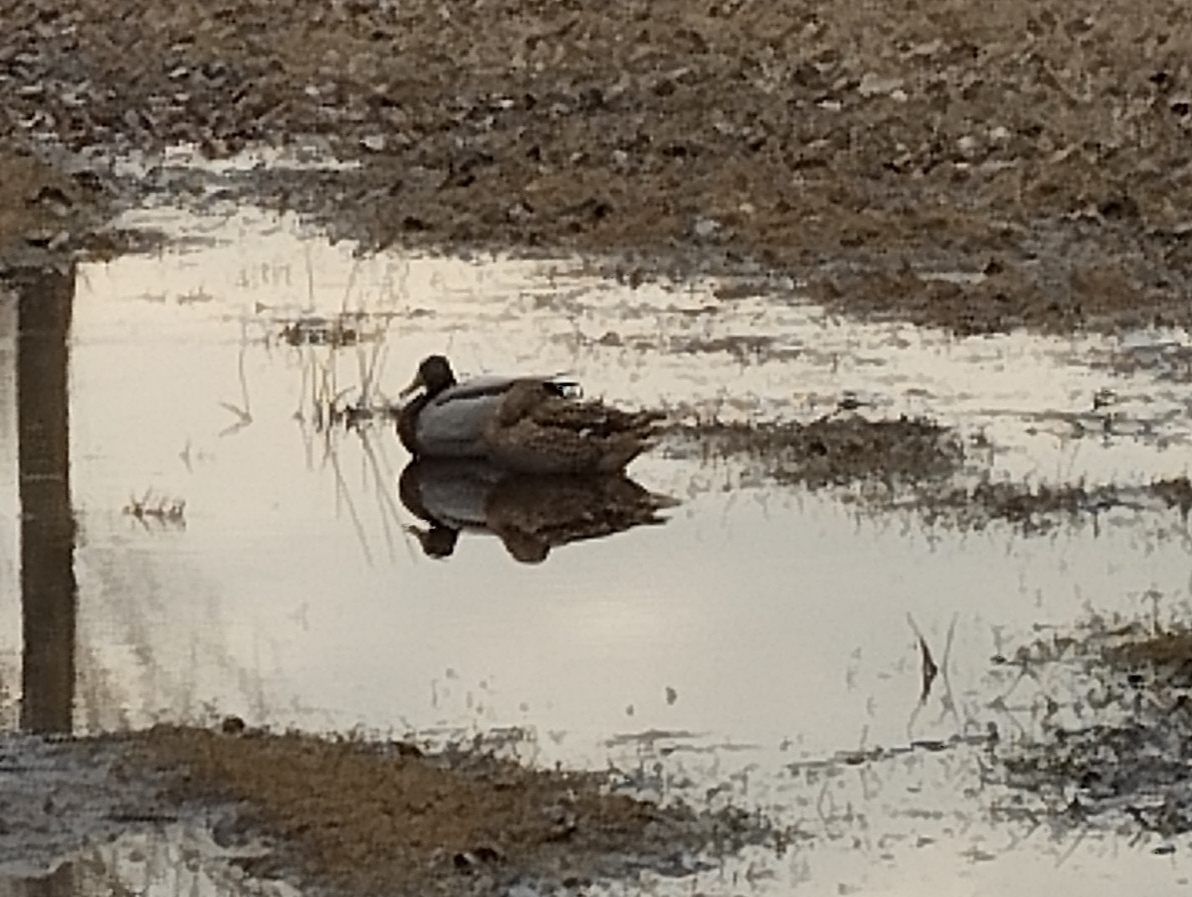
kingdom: Animalia
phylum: Chordata
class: Aves
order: Anseriformes
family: Anatidae
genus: Anas
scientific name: Anas platyrhynchos
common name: Mallard
